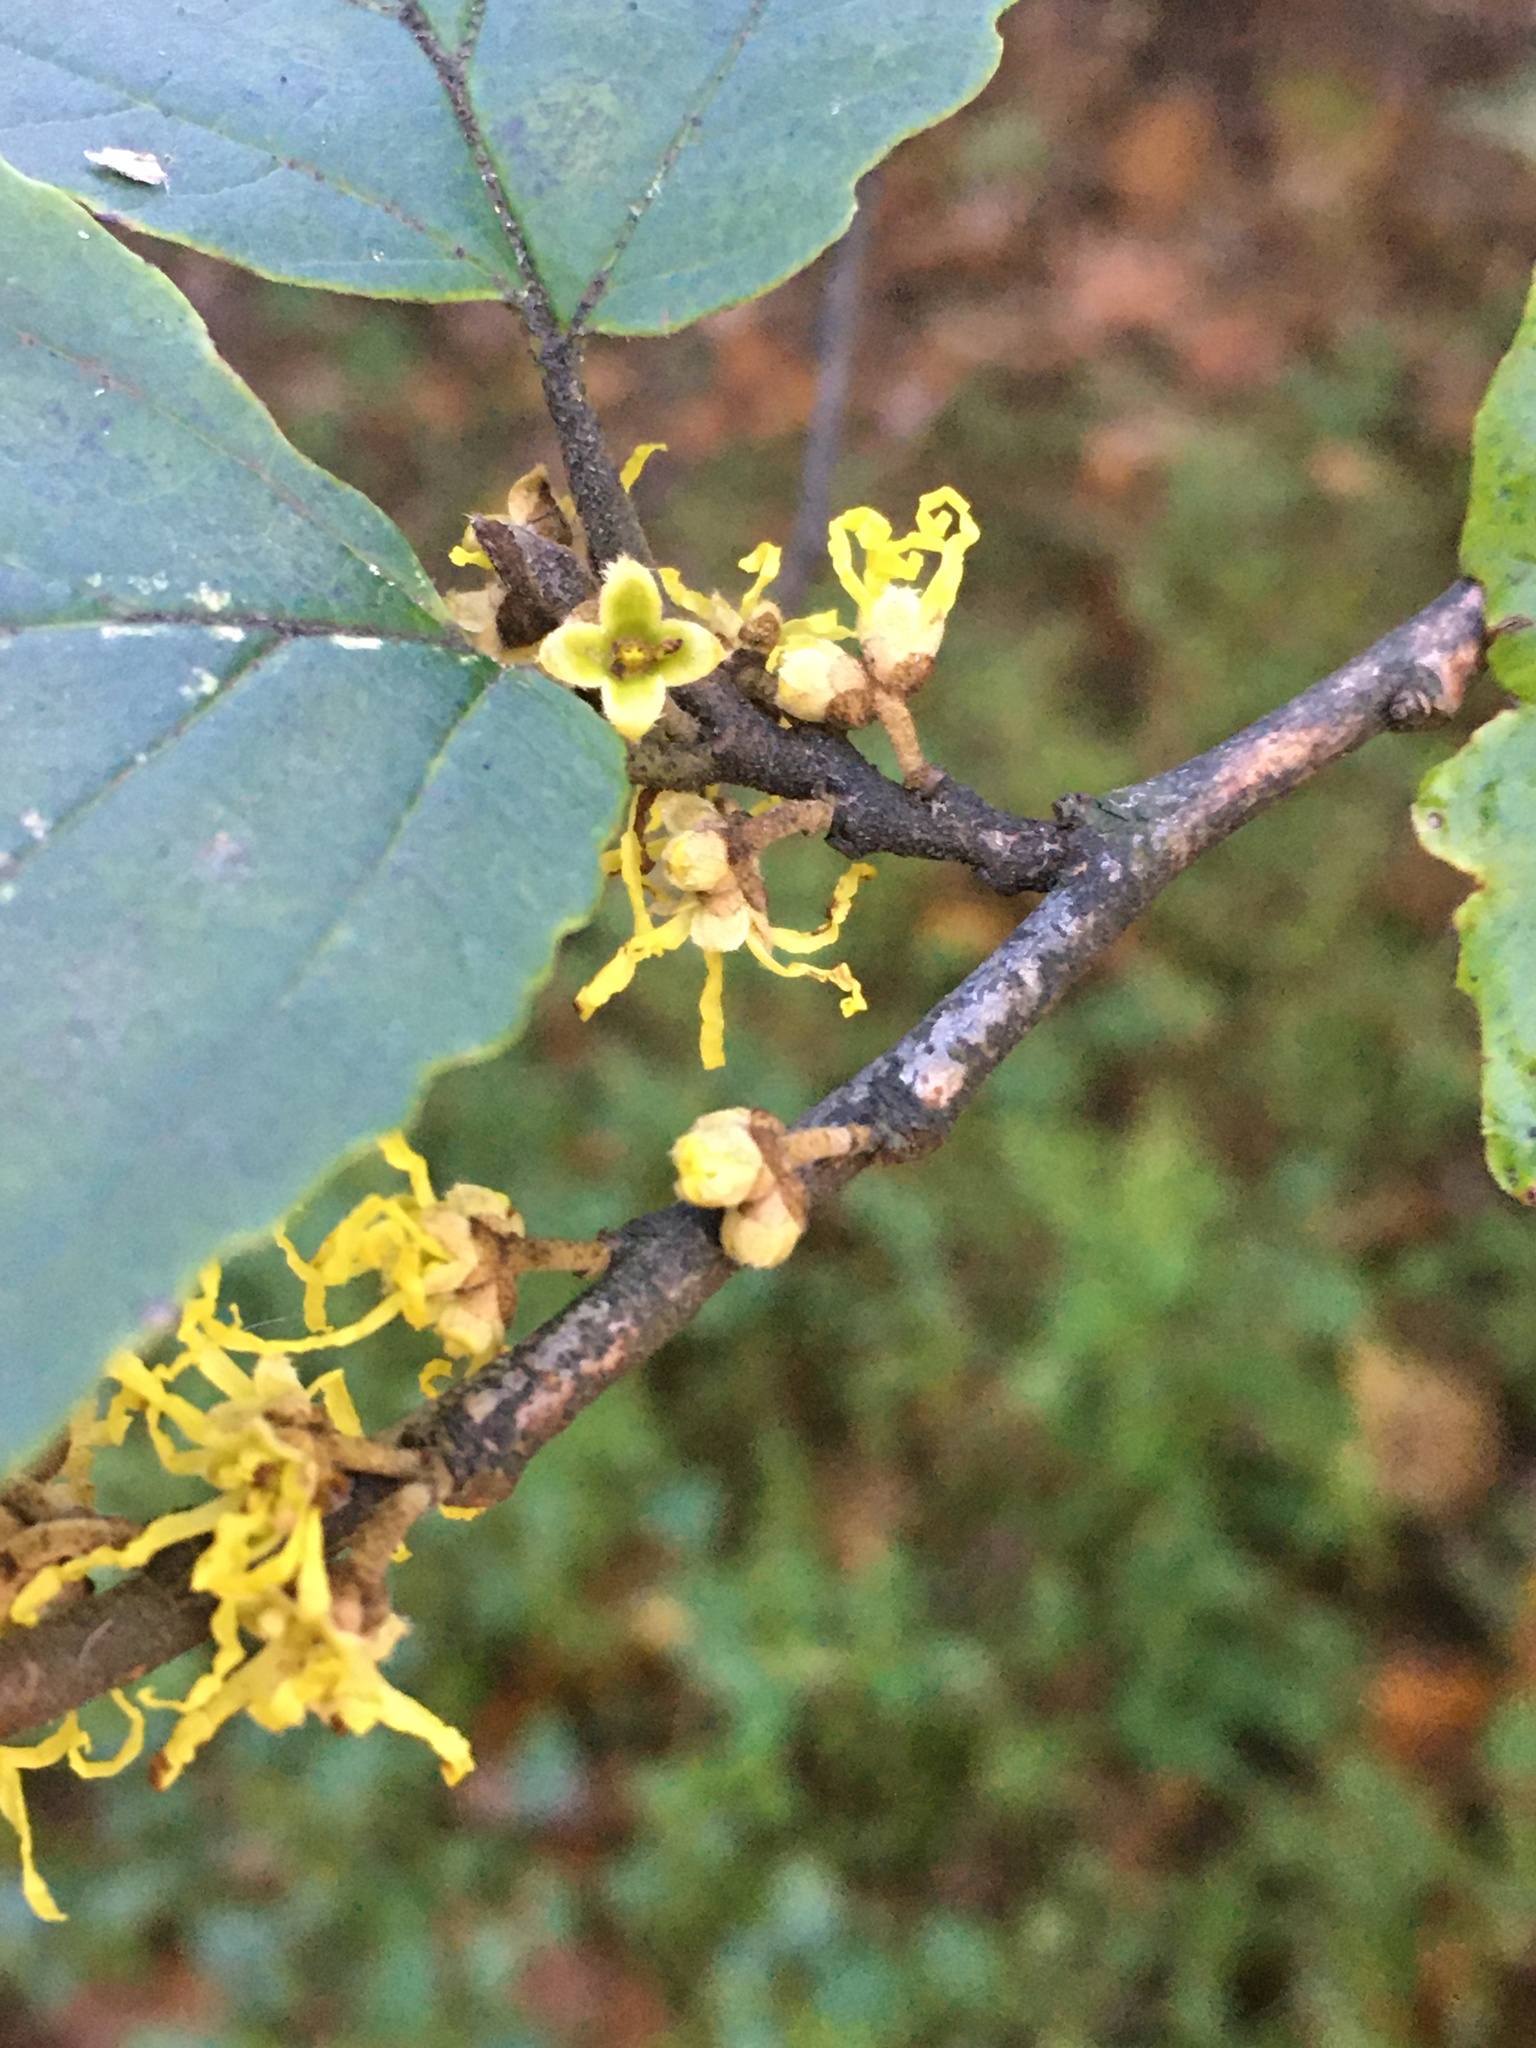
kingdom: Plantae
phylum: Tracheophyta
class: Magnoliopsida
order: Saxifragales
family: Hamamelidaceae
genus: Hamamelis
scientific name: Hamamelis virginiana
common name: Witch-hazel
